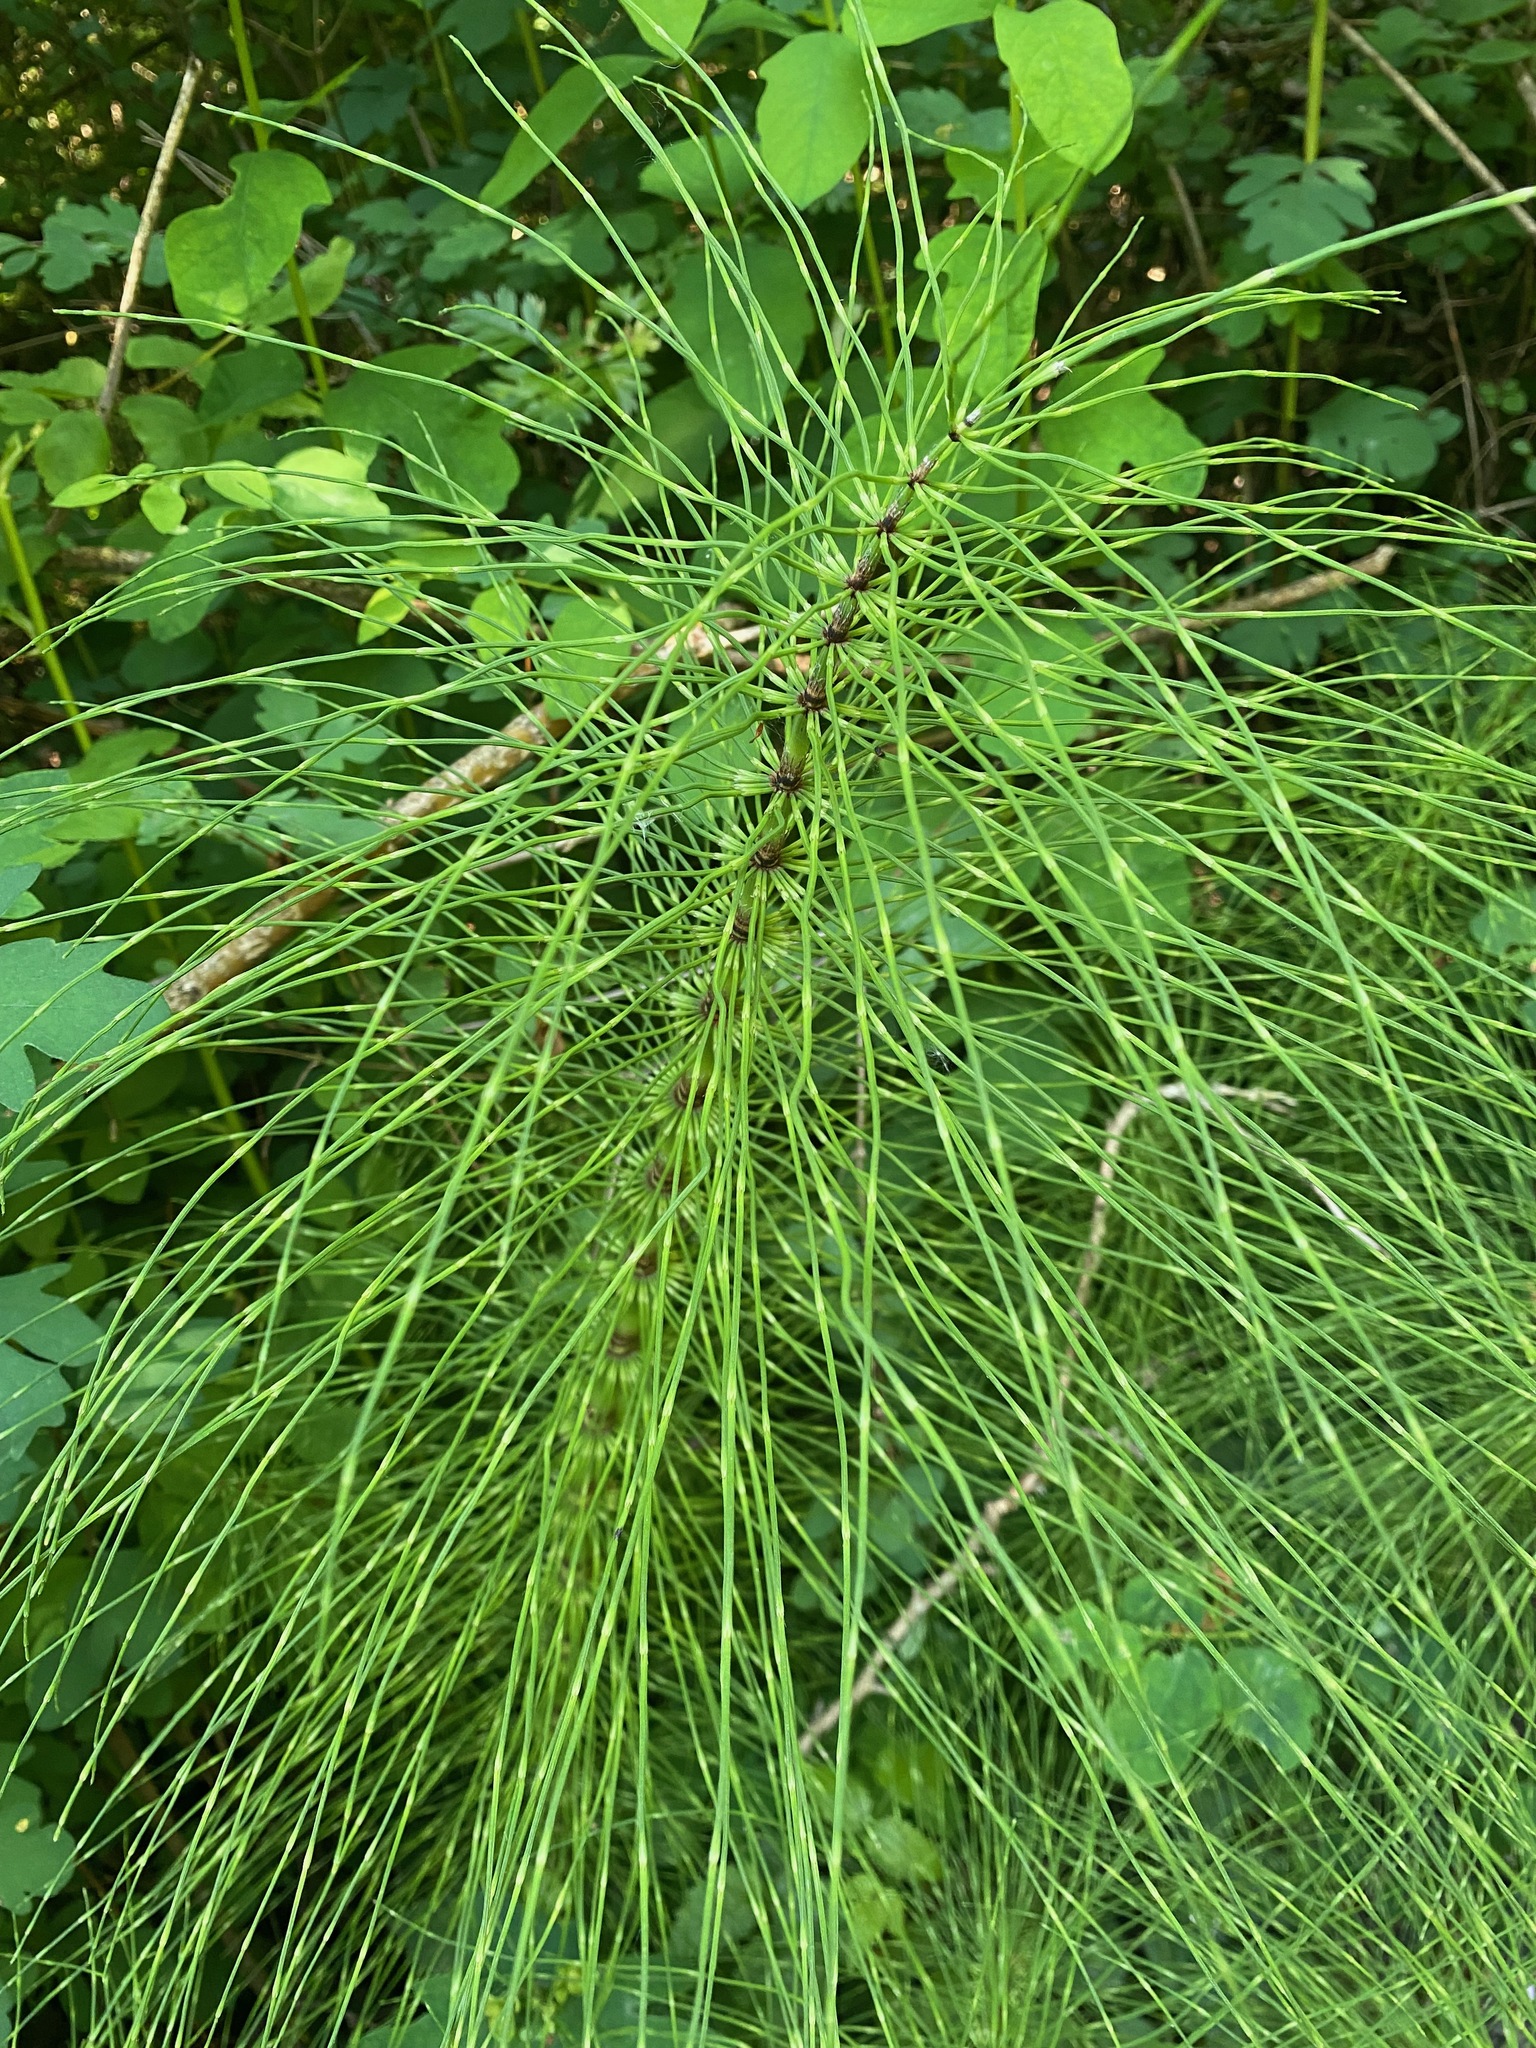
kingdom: Plantae
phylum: Tracheophyta
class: Polypodiopsida
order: Equisetales
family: Equisetaceae
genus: Equisetum
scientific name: Equisetum telmateia
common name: Great horsetail
